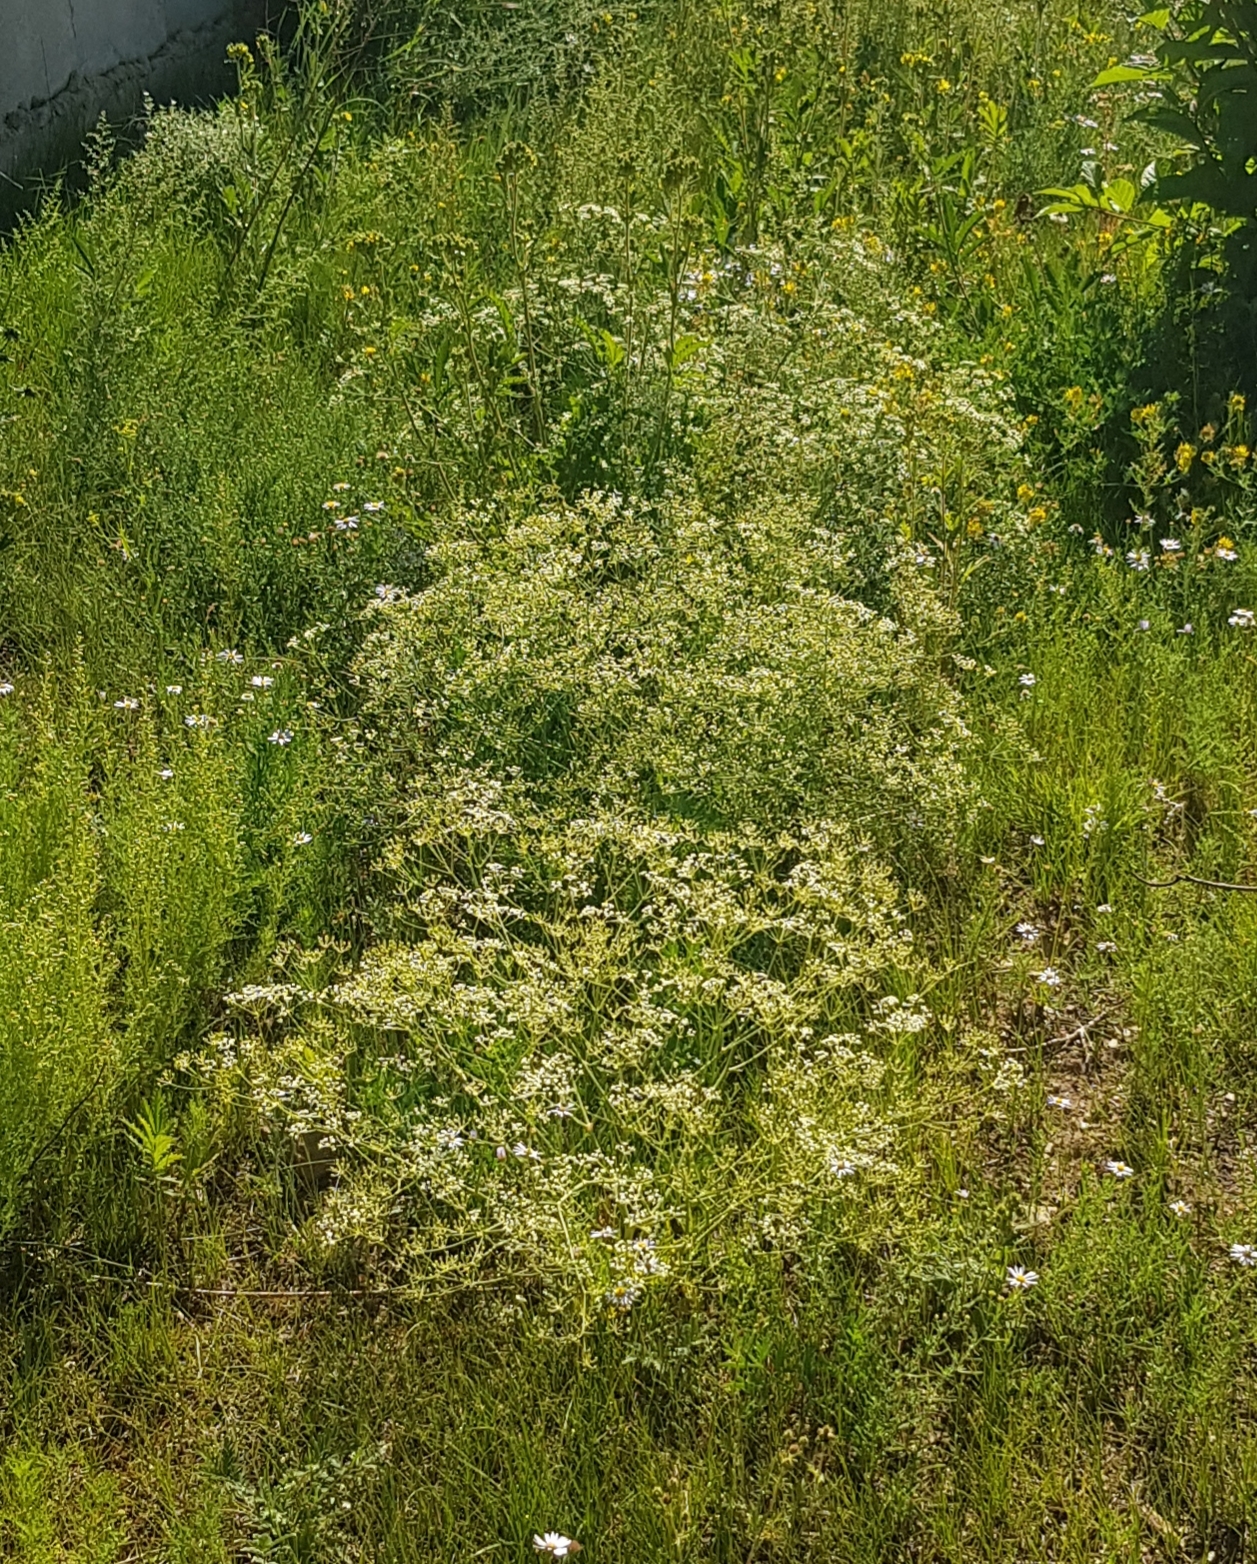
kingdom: Plantae
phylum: Tracheophyta
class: Magnoliopsida
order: Apiales
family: Apiaceae
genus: Saposhnikovia
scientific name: Saposhnikovia divaricata
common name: Siler
